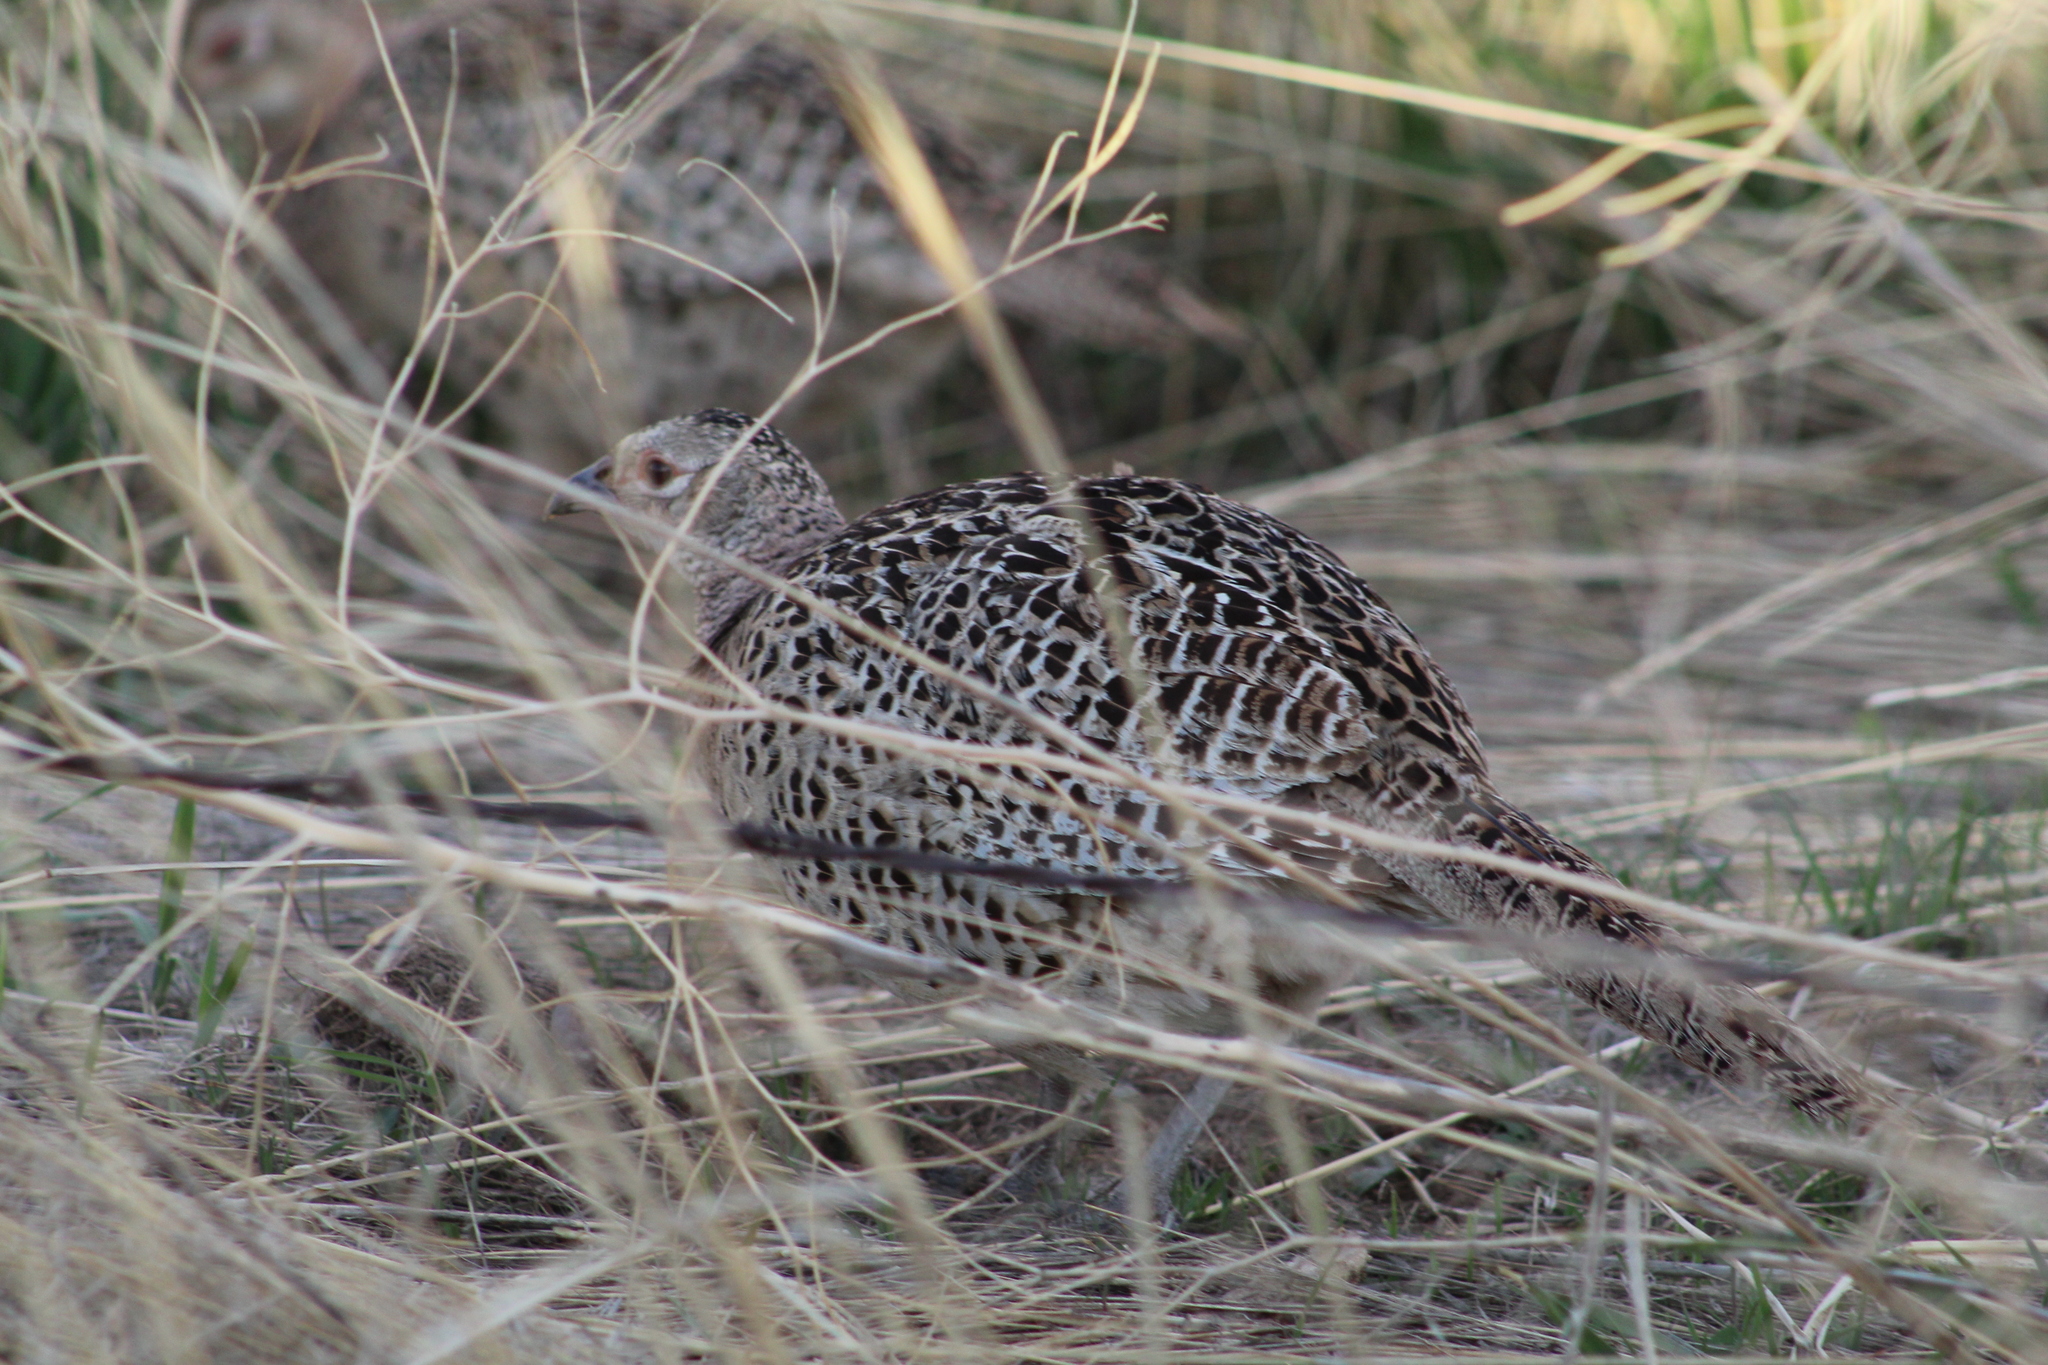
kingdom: Animalia
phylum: Chordata
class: Aves
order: Galliformes
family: Phasianidae
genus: Phasianus
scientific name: Phasianus colchicus
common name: Common pheasant
